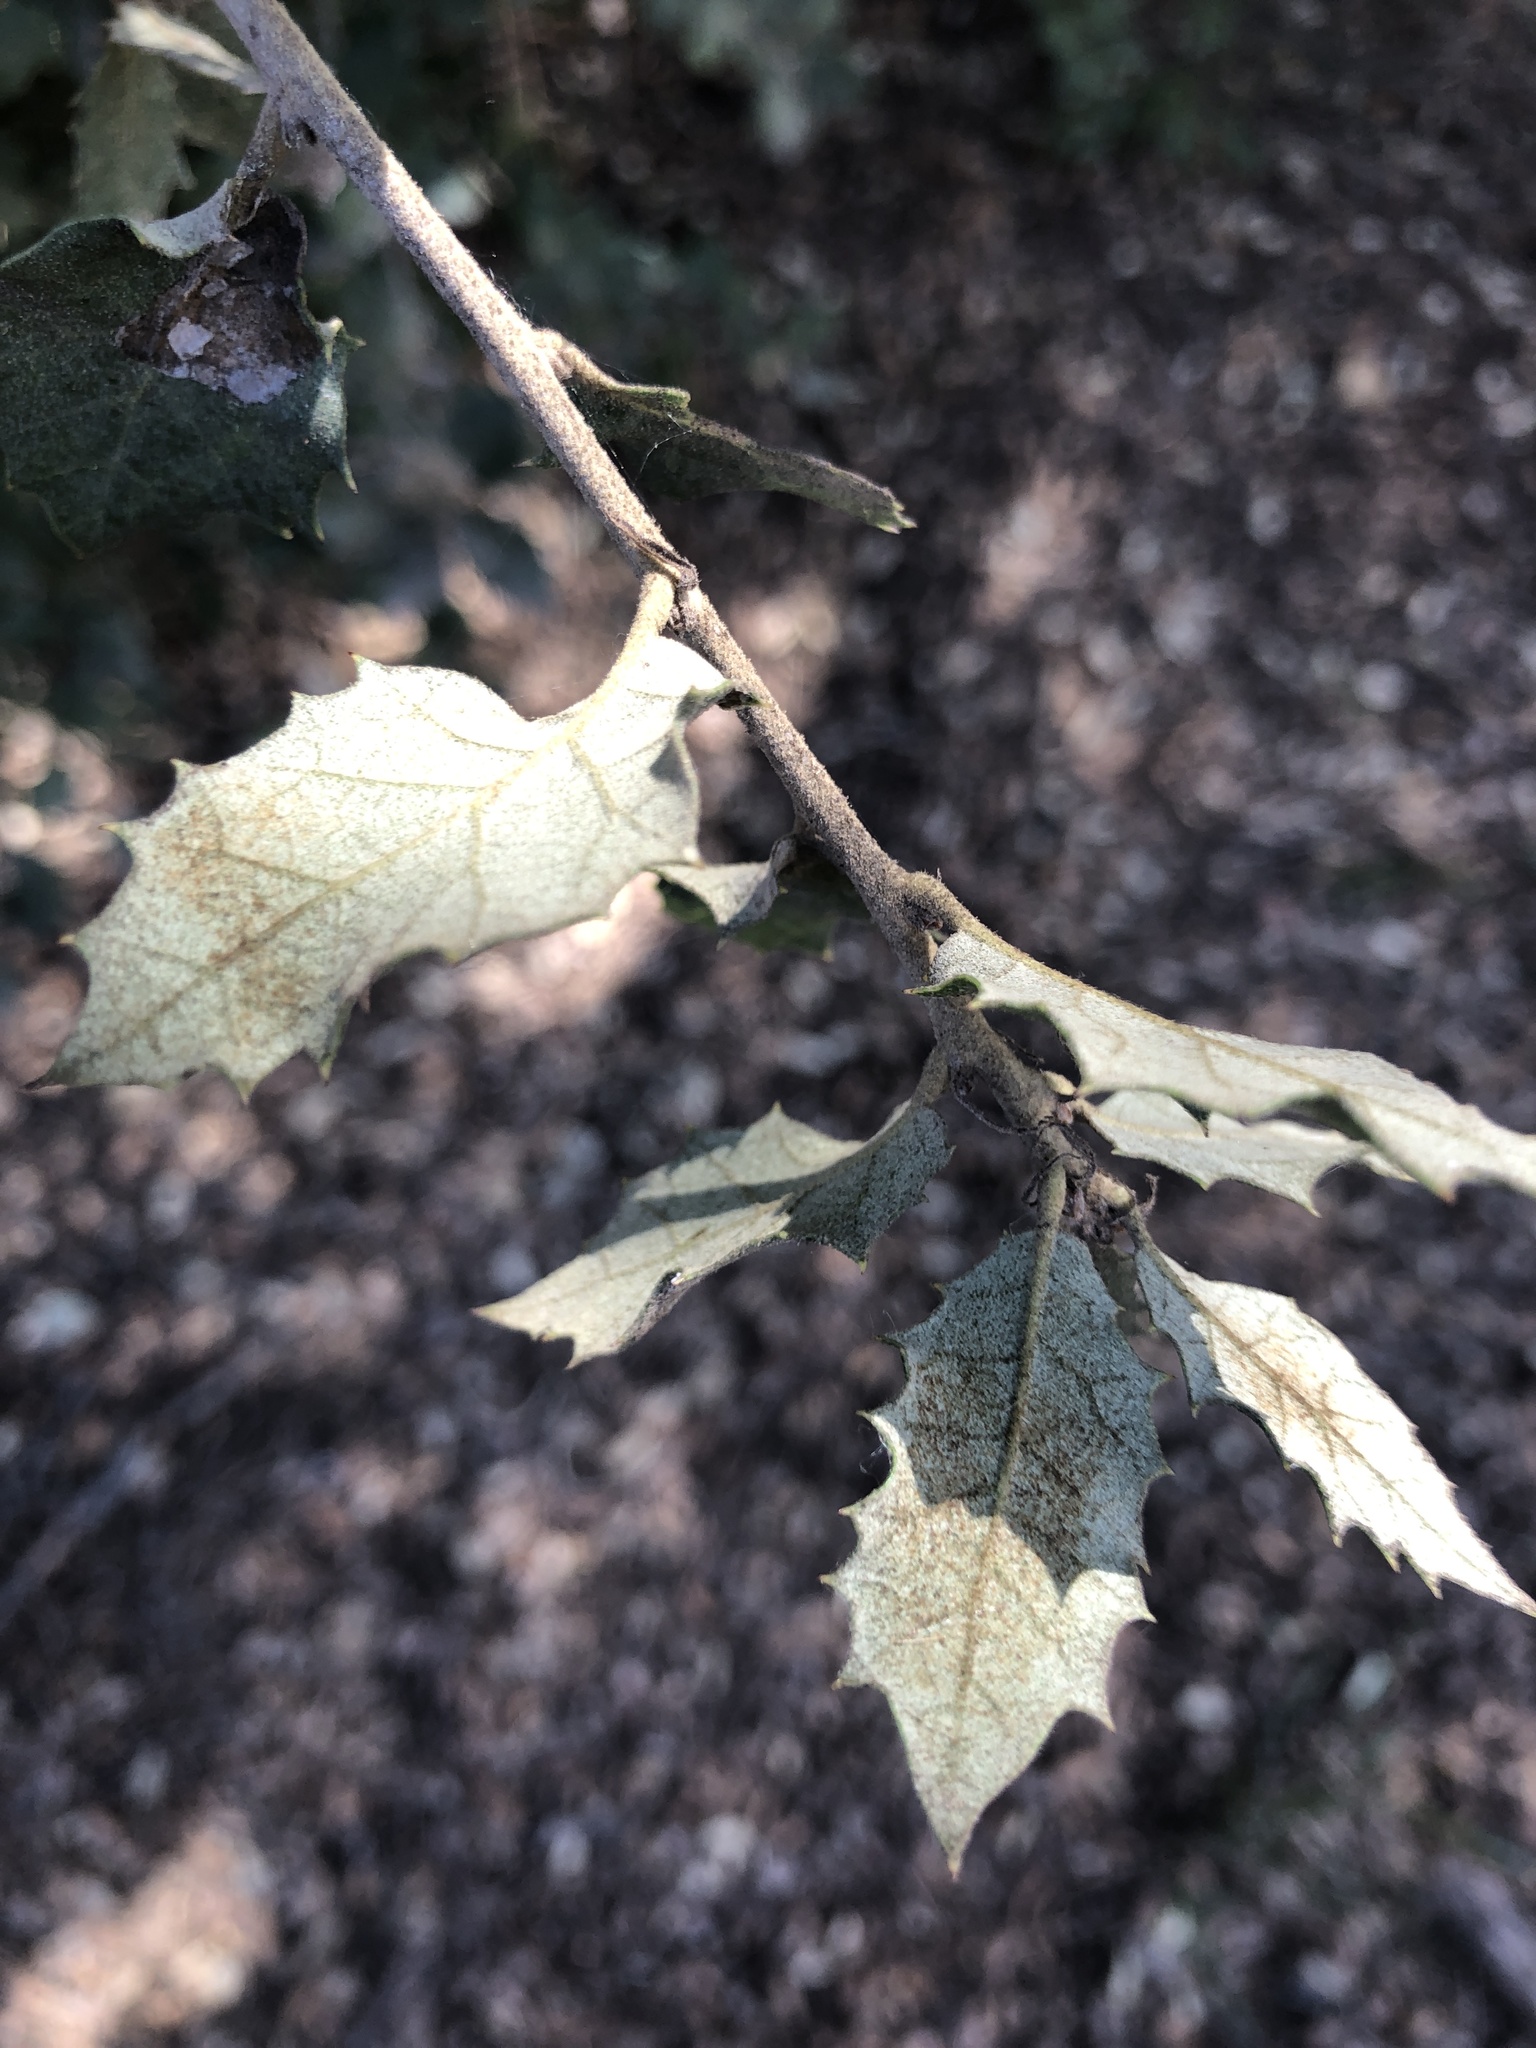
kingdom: Plantae
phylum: Tracheophyta
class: Magnoliopsida
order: Fagales
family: Fagaceae
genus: Quercus
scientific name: Quercus rotundifolia
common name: Holm oak
